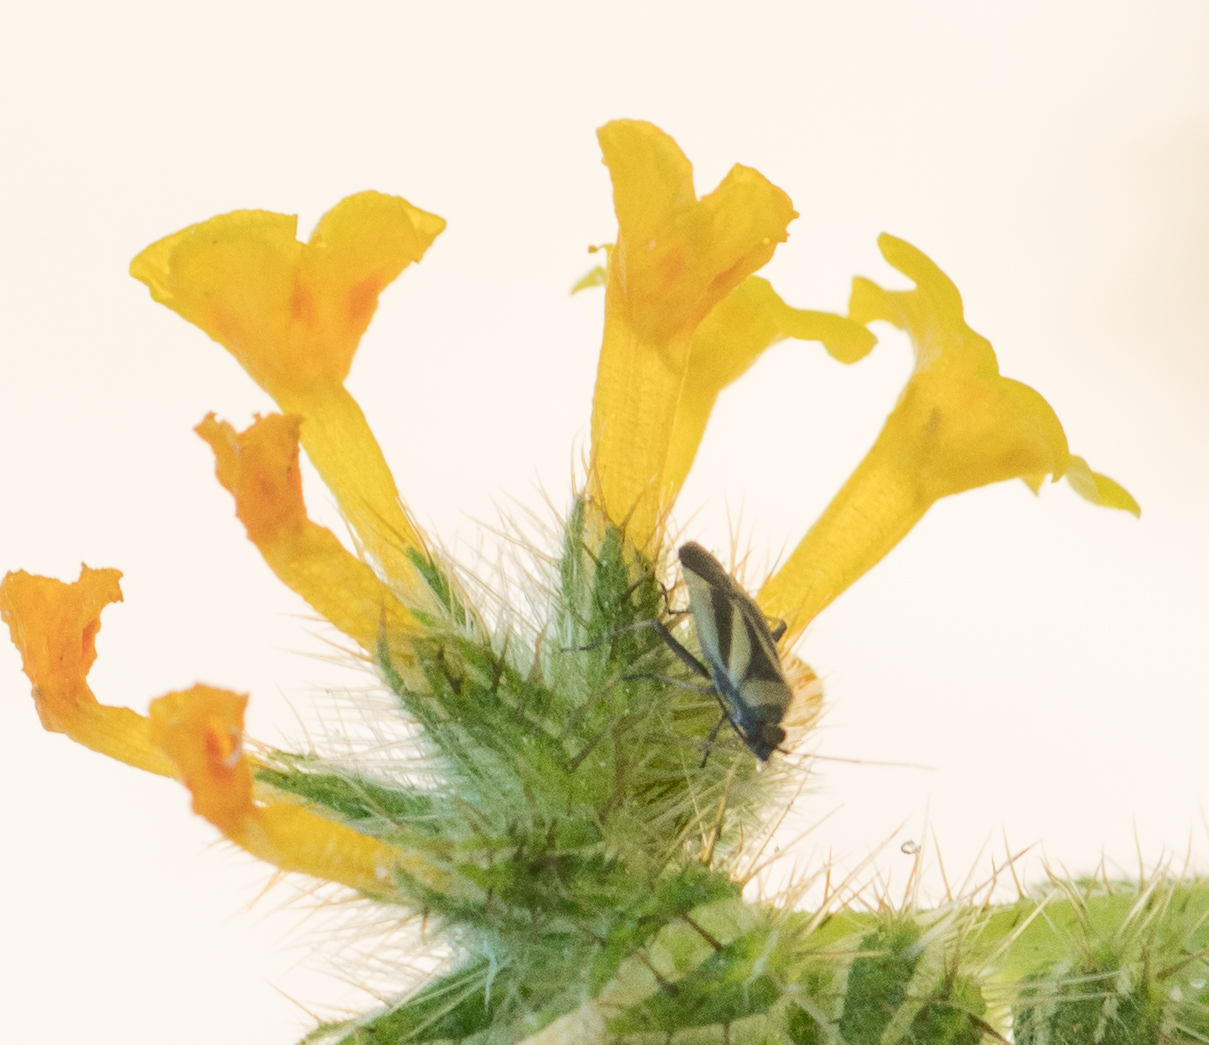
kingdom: Animalia
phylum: Arthropoda
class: Insecta
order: Hemiptera
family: Miridae
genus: Plagiognathus
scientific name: Plagiognathus moerens
